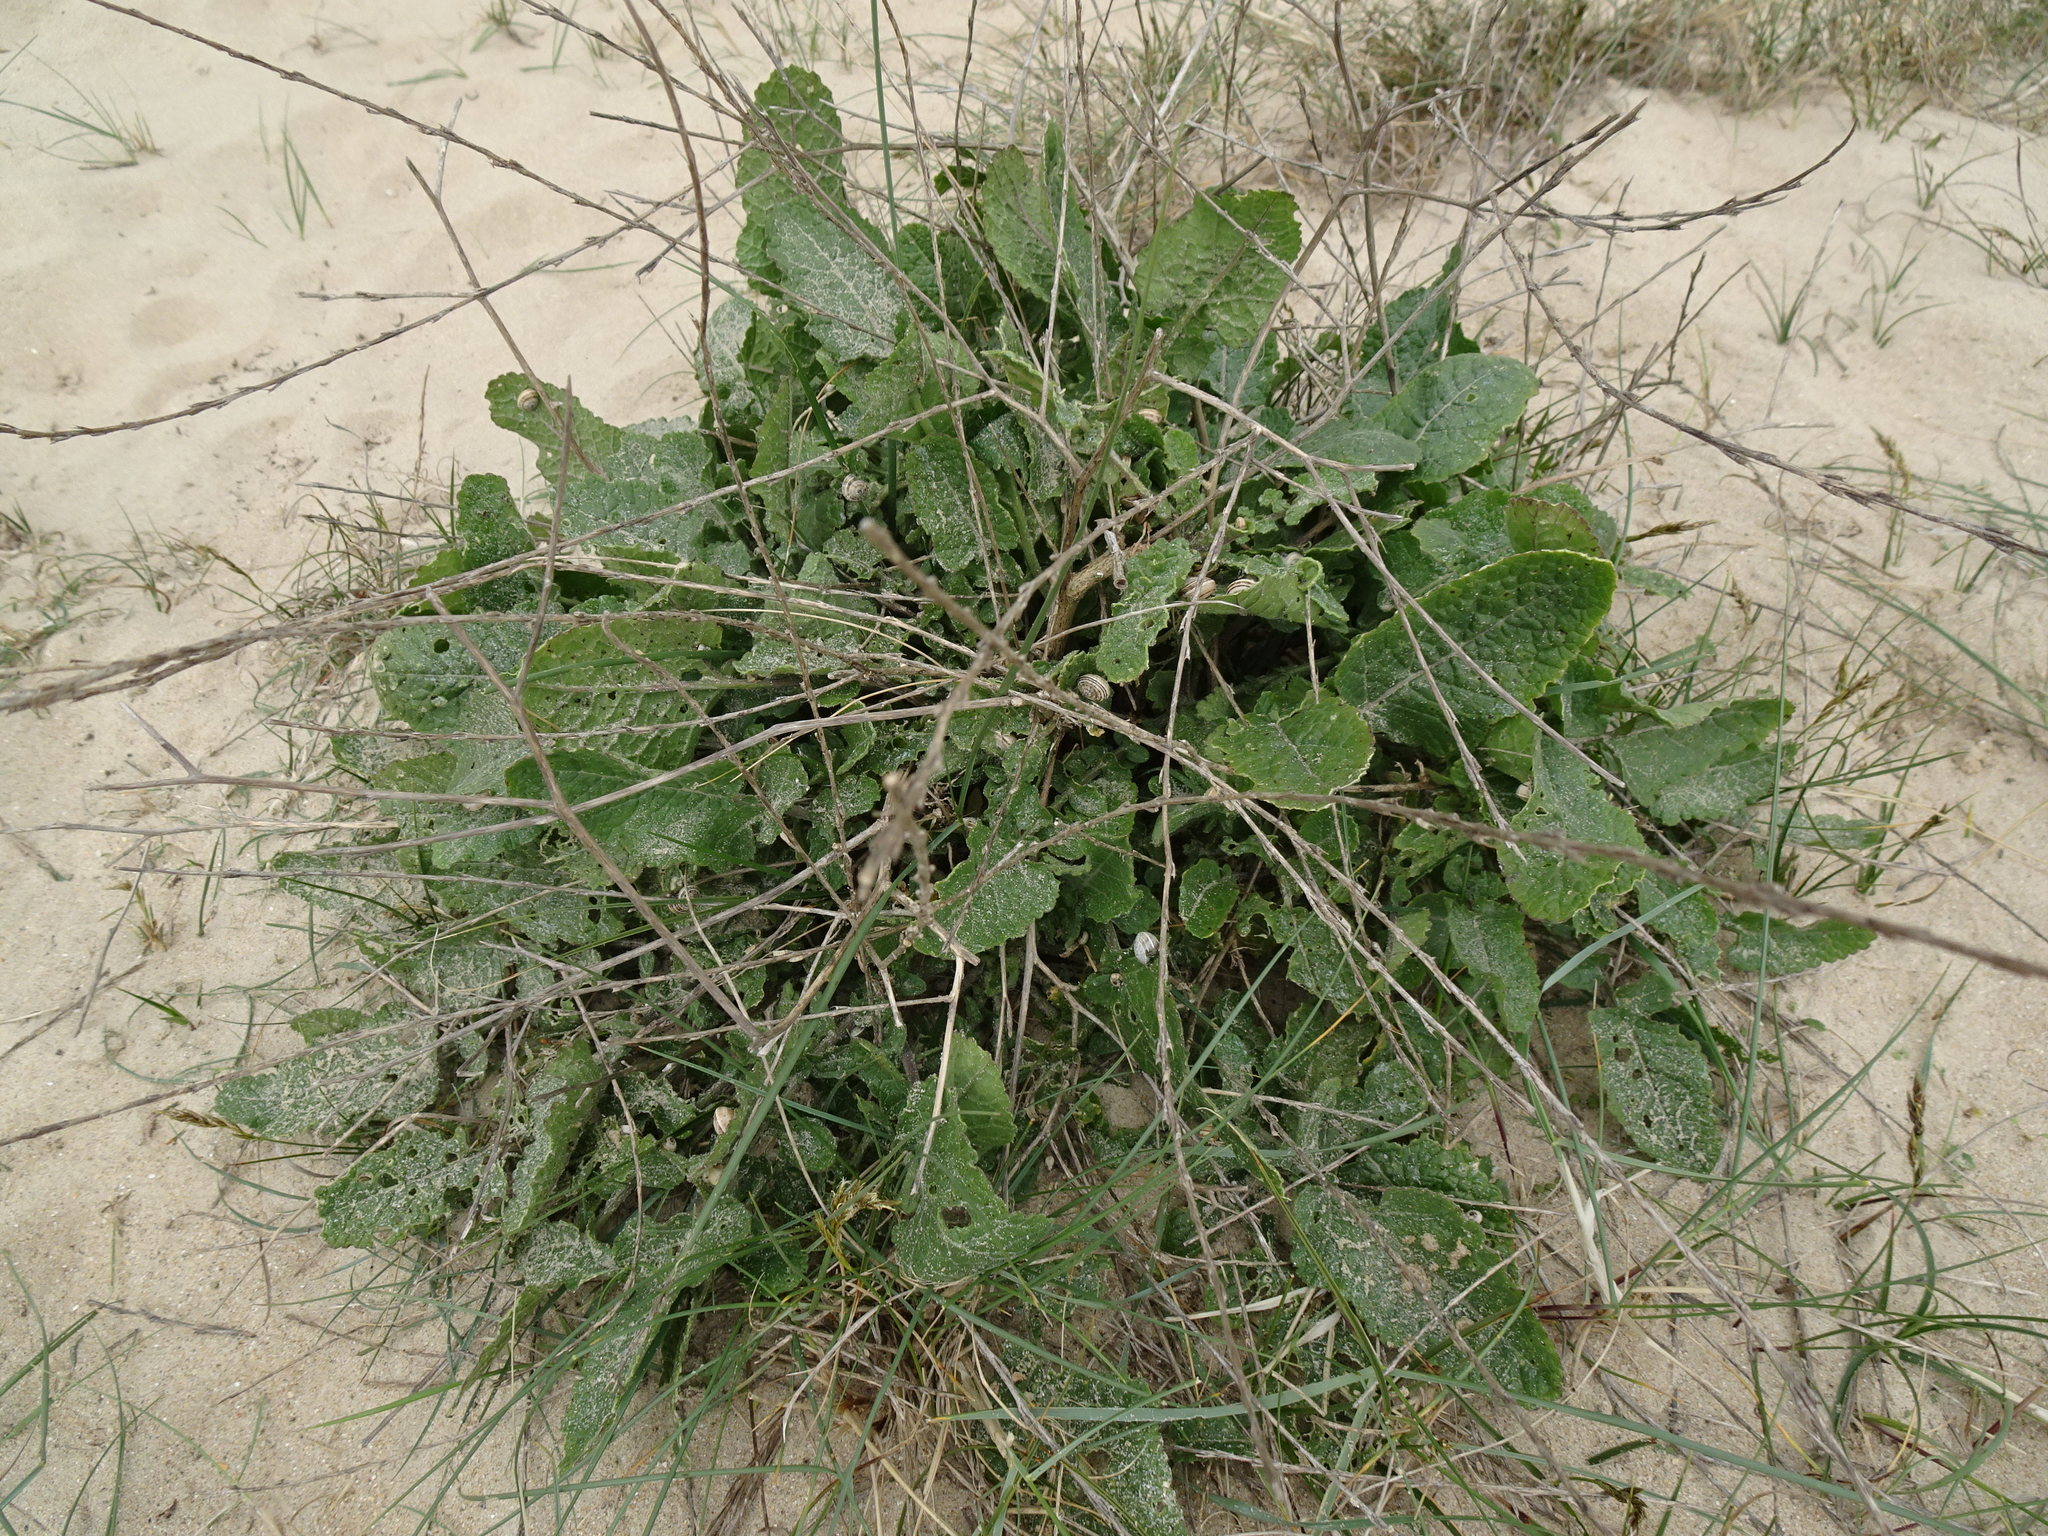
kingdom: Plantae
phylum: Tracheophyta
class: Magnoliopsida
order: Caryophyllales
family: Amaranthaceae
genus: Beta
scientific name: Beta vulgaris
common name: Beet
